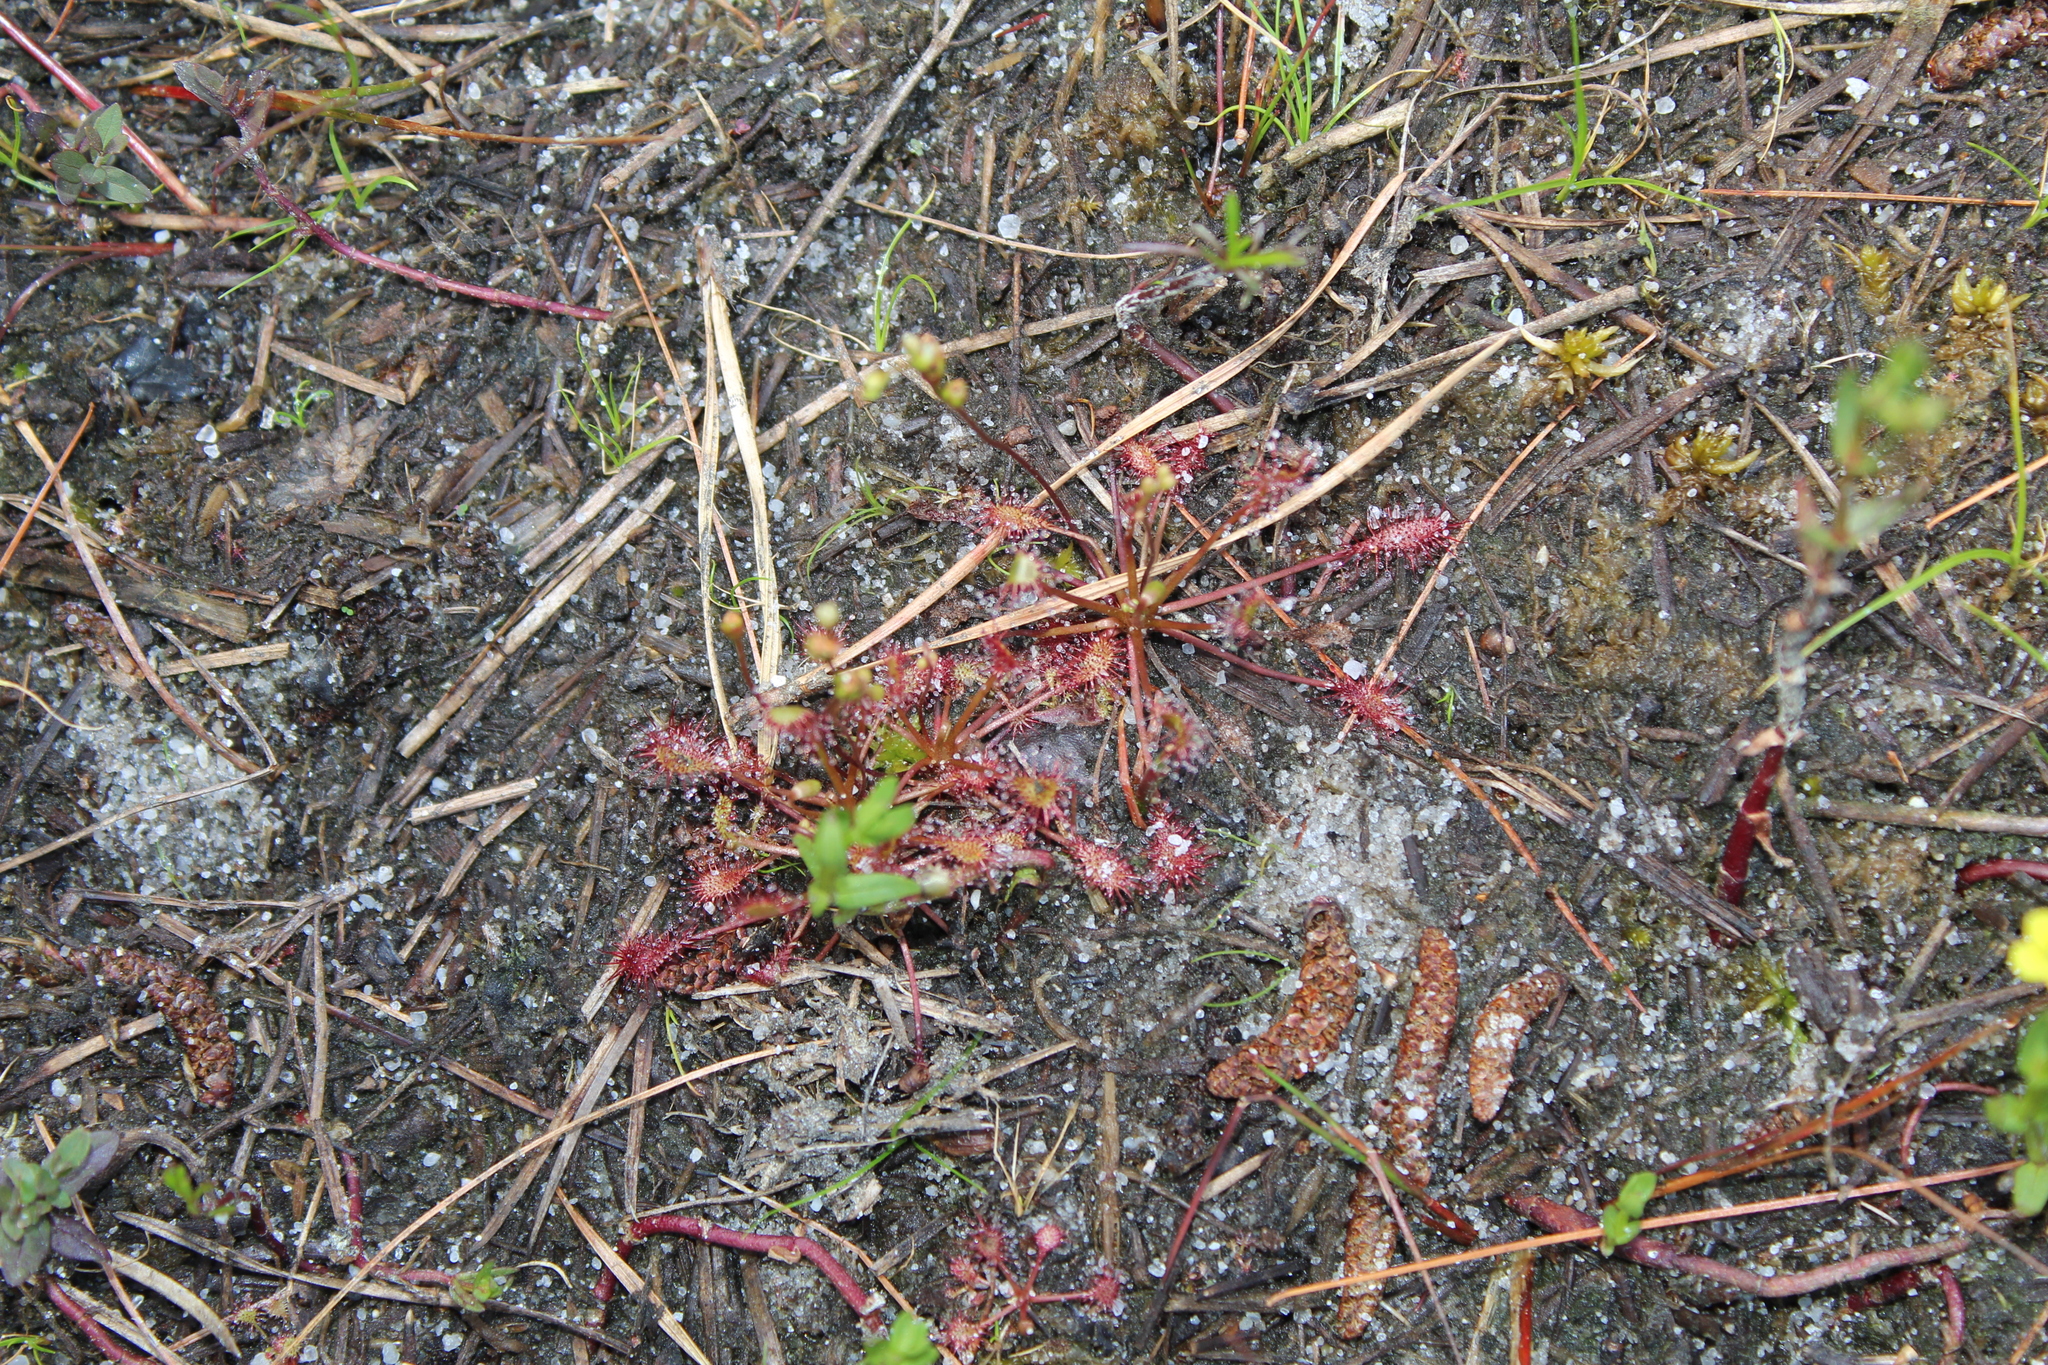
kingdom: Plantae
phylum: Tracheophyta
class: Magnoliopsida
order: Caryophyllales
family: Droseraceae
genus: Drosera
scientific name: Drosera intermedia
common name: Oblong-leaved sundew
